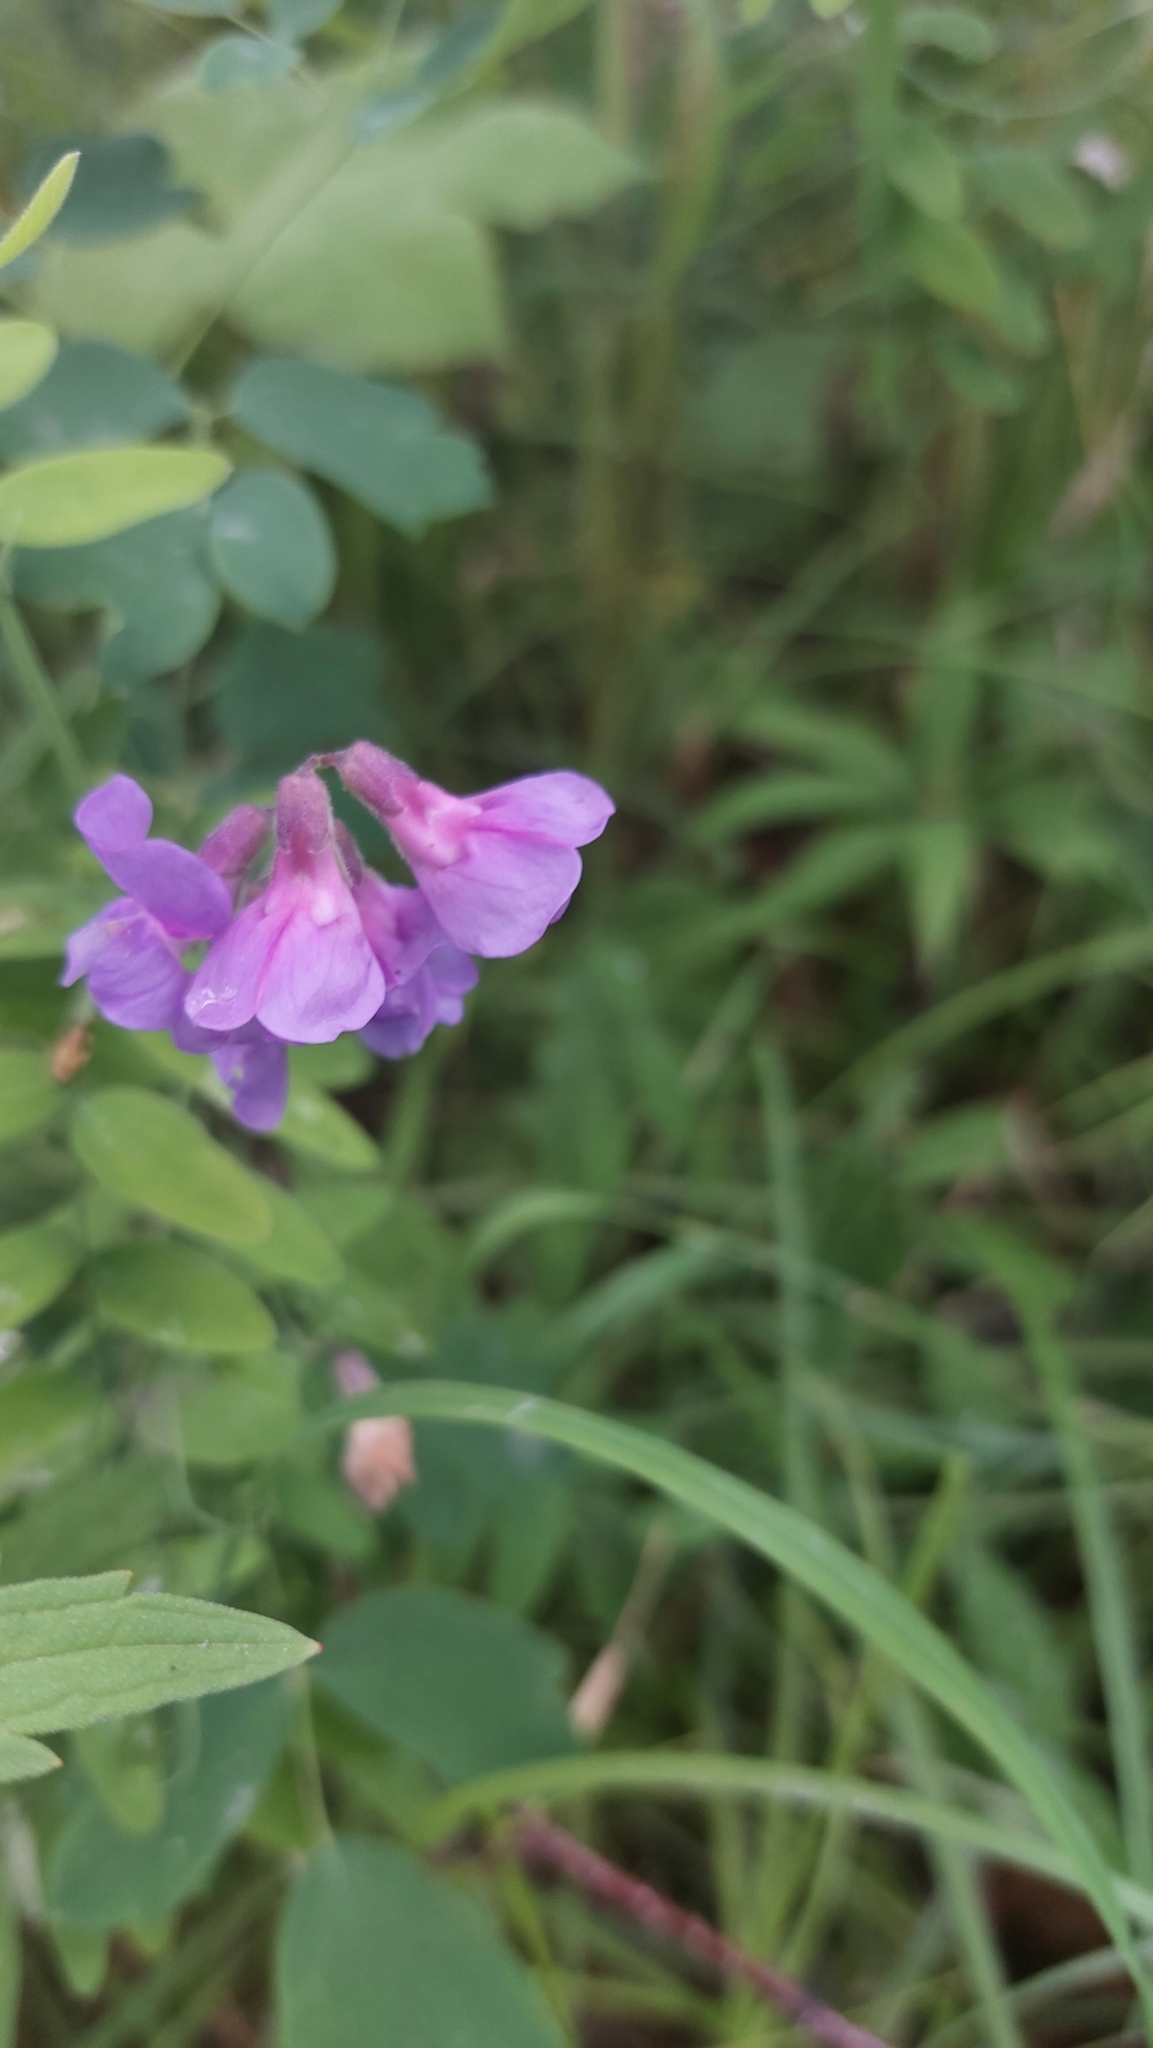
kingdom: Plantae
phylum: Tracheophyta
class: Magnoliopsida
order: Fabales
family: Fabaceae
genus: Lathyrus
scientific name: Lathyrus palustris
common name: Marsh pea
